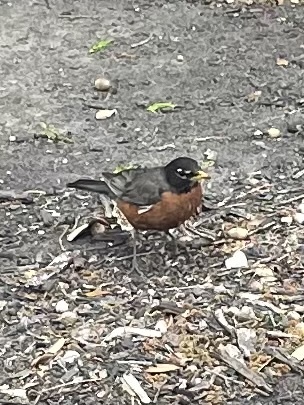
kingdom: Animalia
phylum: Chordata
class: Aves
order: Passeriformes
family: Turdidae
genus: Turdus
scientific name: Turdus migratorius
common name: American robin
